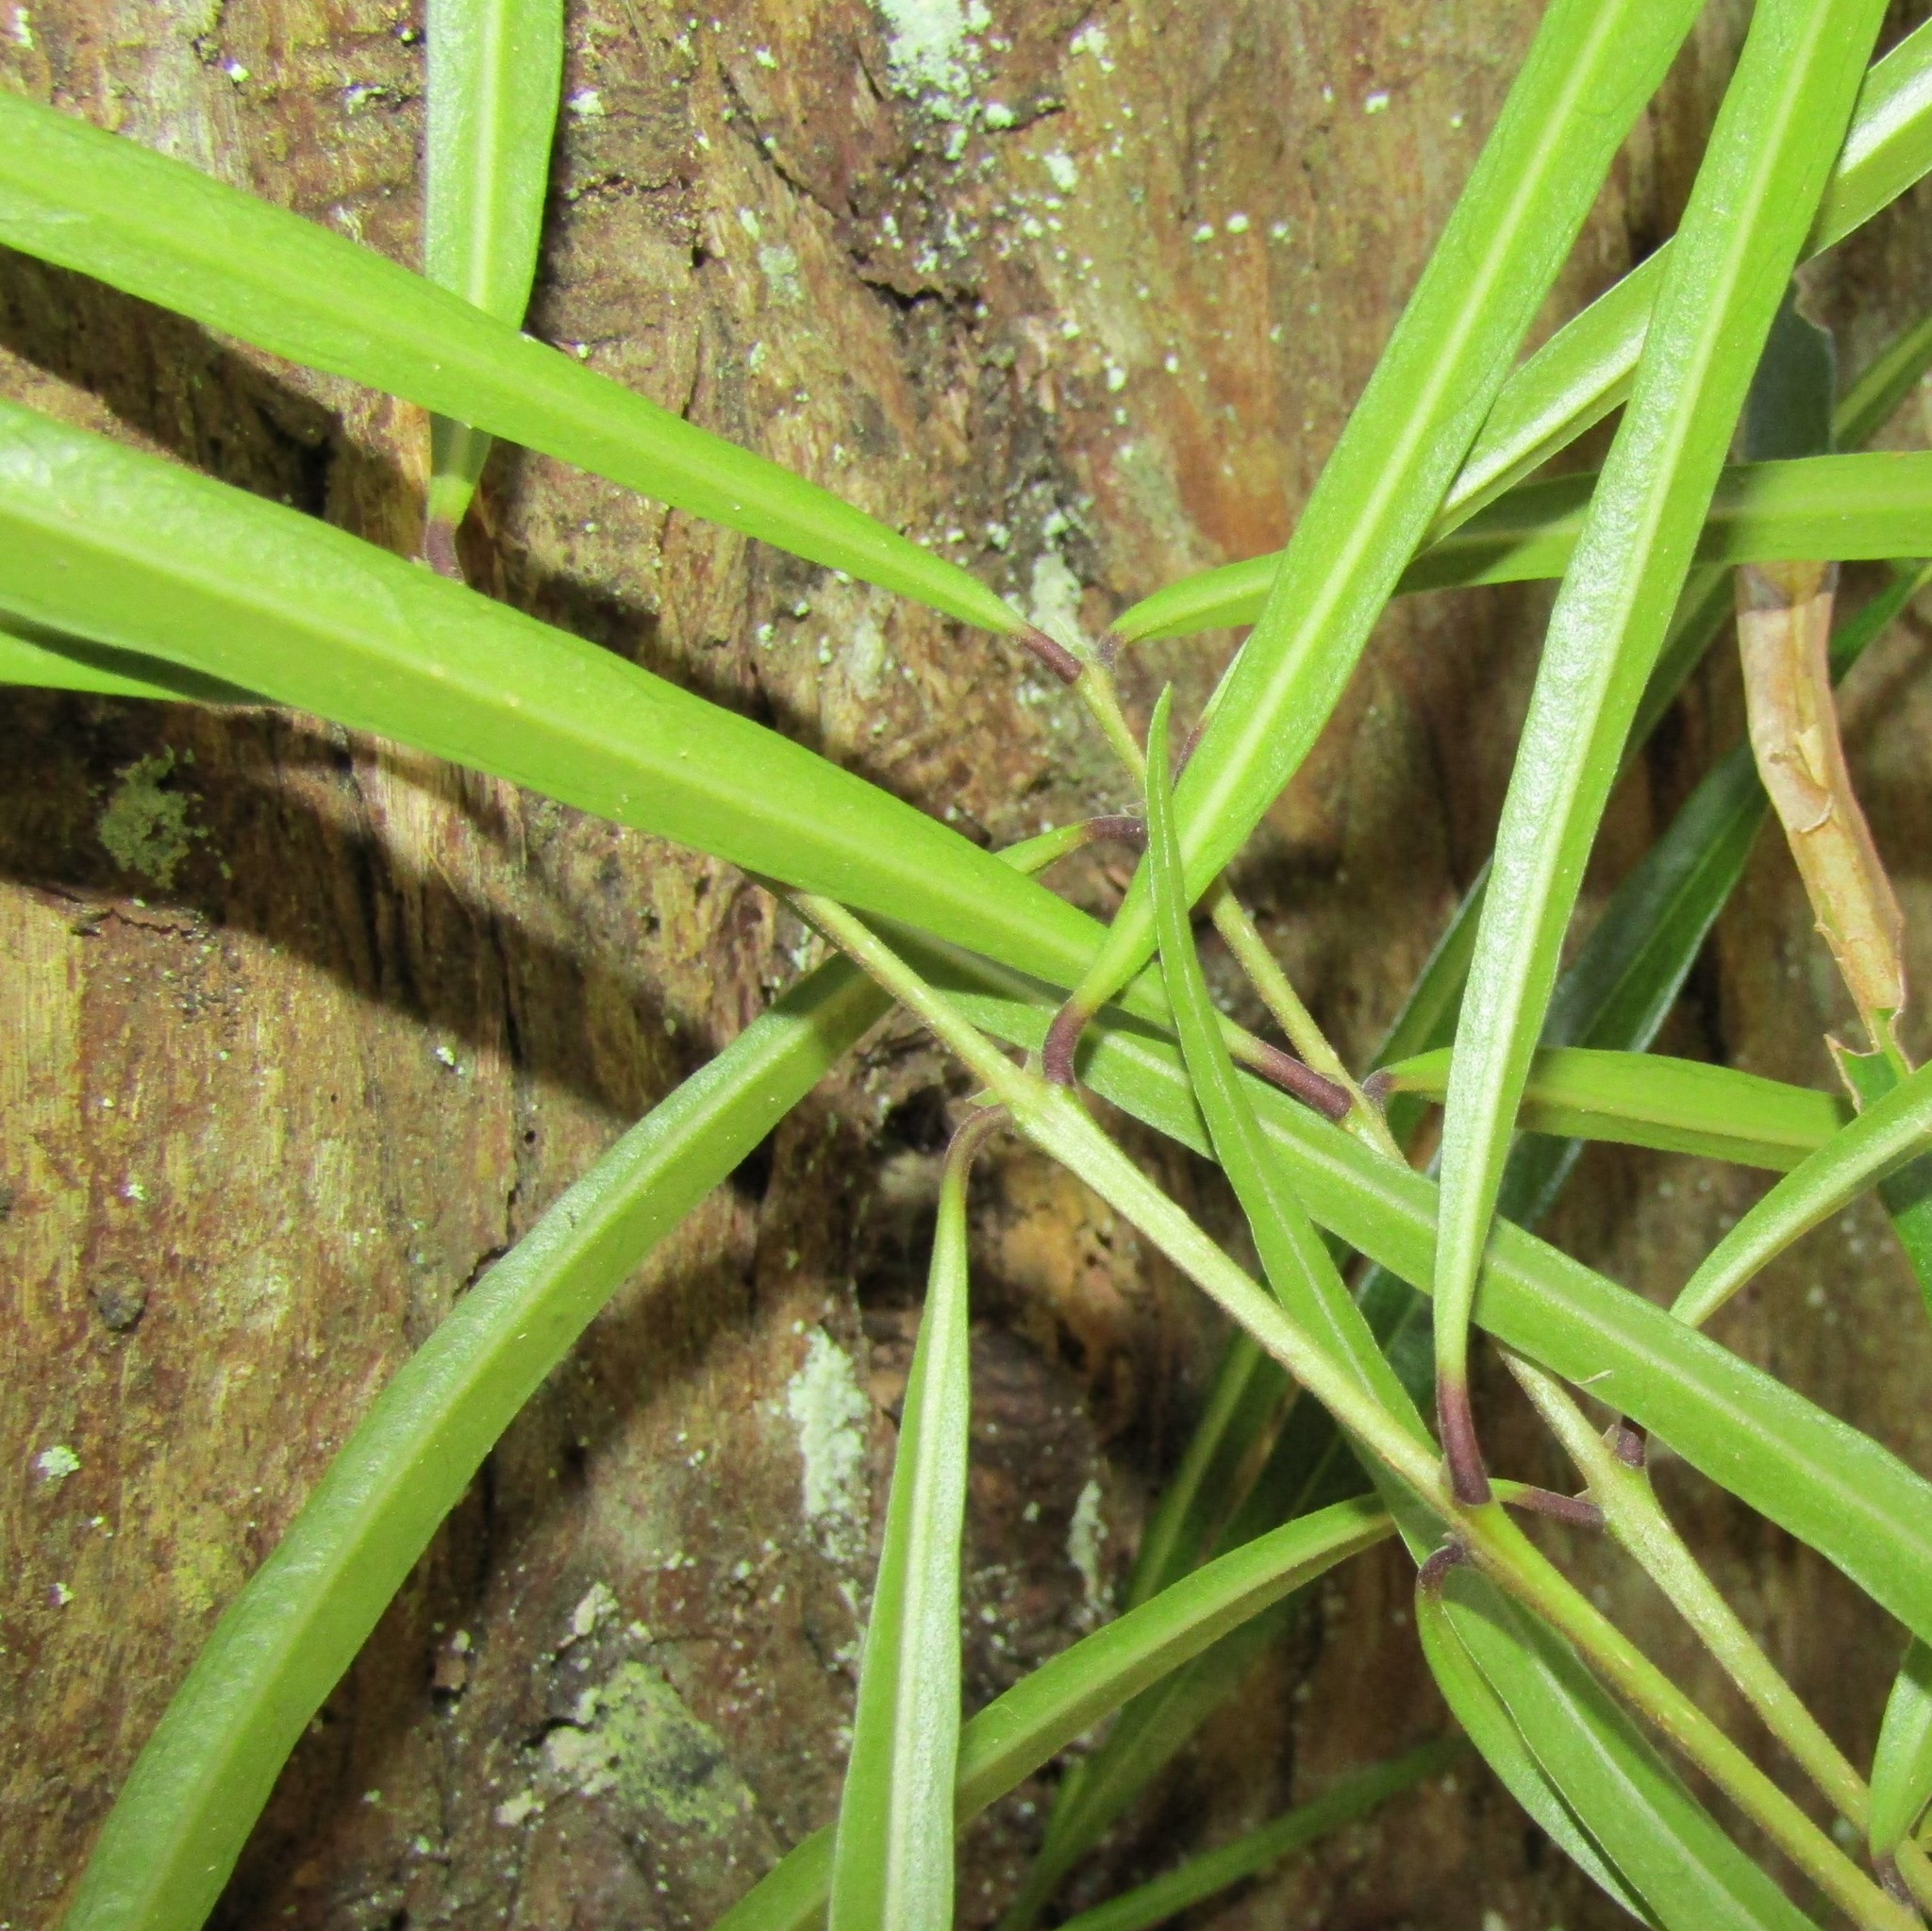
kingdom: Plantae
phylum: Tracheophyta
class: Magnoliopsida
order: Lamiales
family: Oleaceae
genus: Nestegis
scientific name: Nestegis lanceolata
